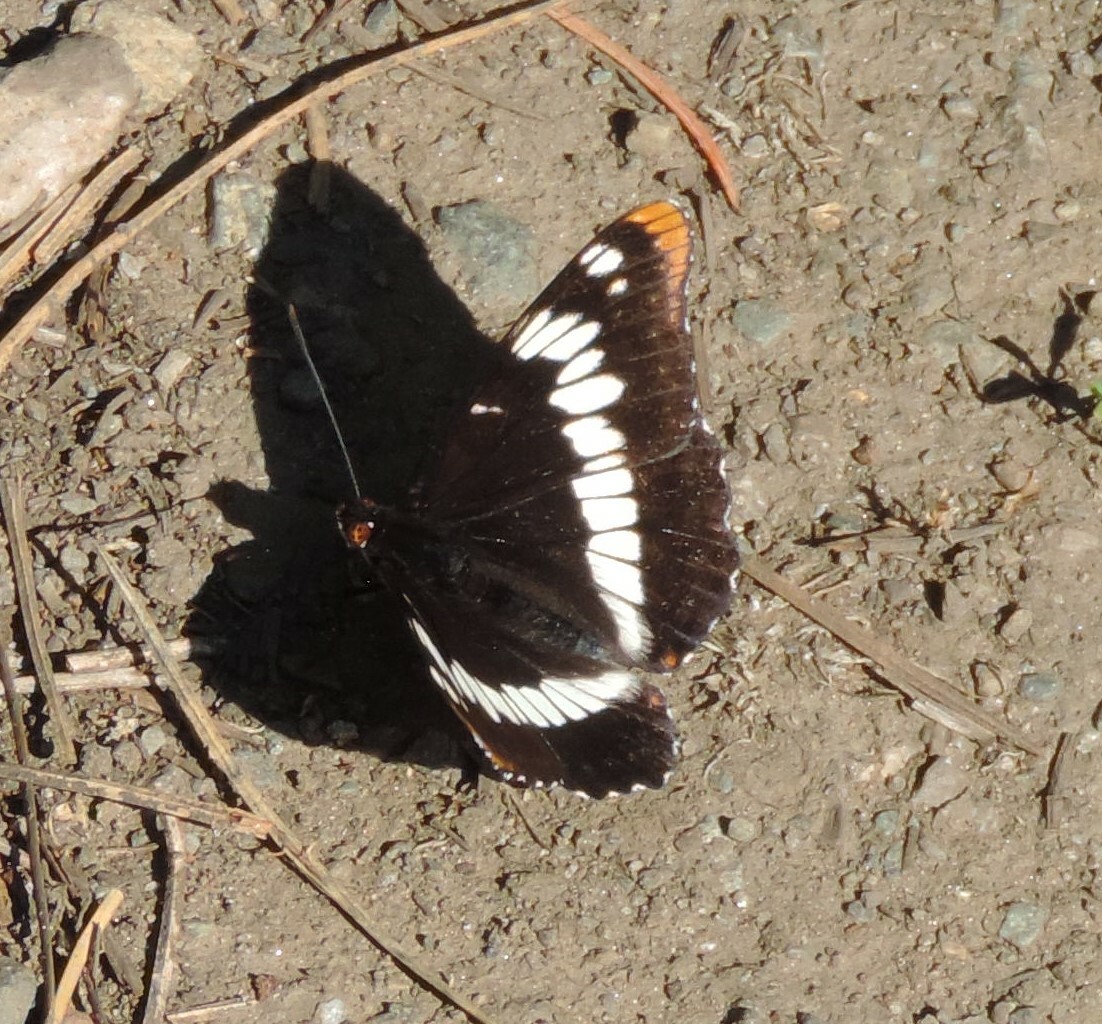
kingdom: Animalia
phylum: Arthropoda
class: Insecta
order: Lepidoptera
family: Nymphalidae
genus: Limenitis
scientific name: Limenitis lorquini
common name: Lorquin's admiral
